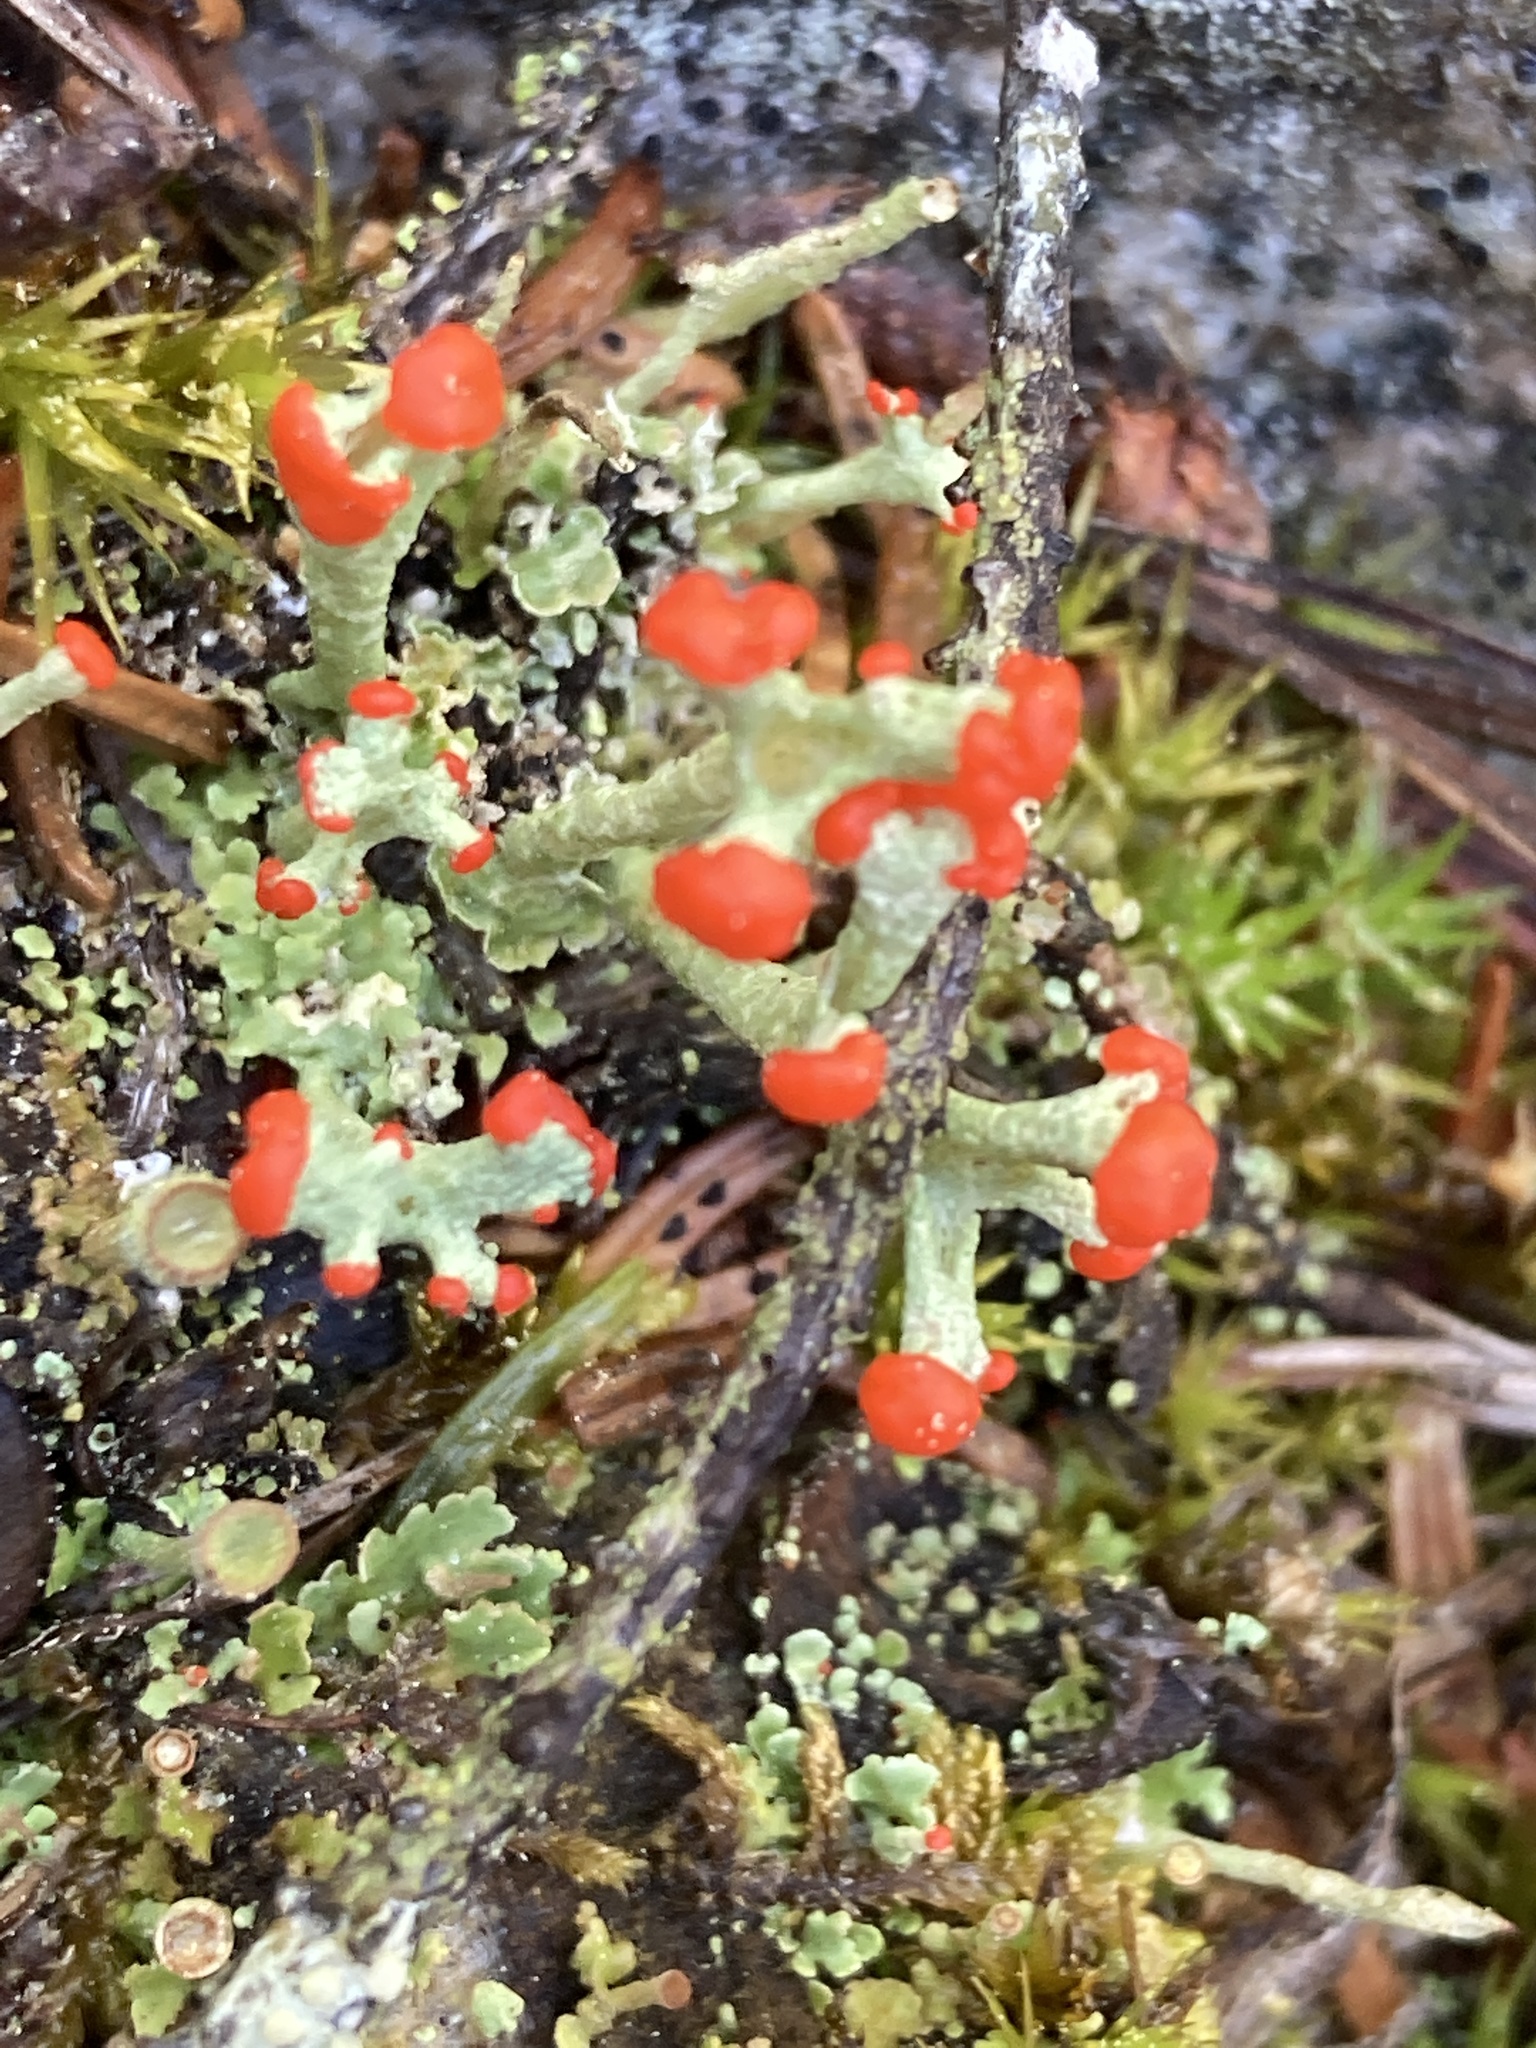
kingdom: Fungi
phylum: Ascomycota
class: Lecanoromycetes
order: Lecanorales
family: Cladoniaceae
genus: Cladonia
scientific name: Cladonia cristatella
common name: British soldier lichen
